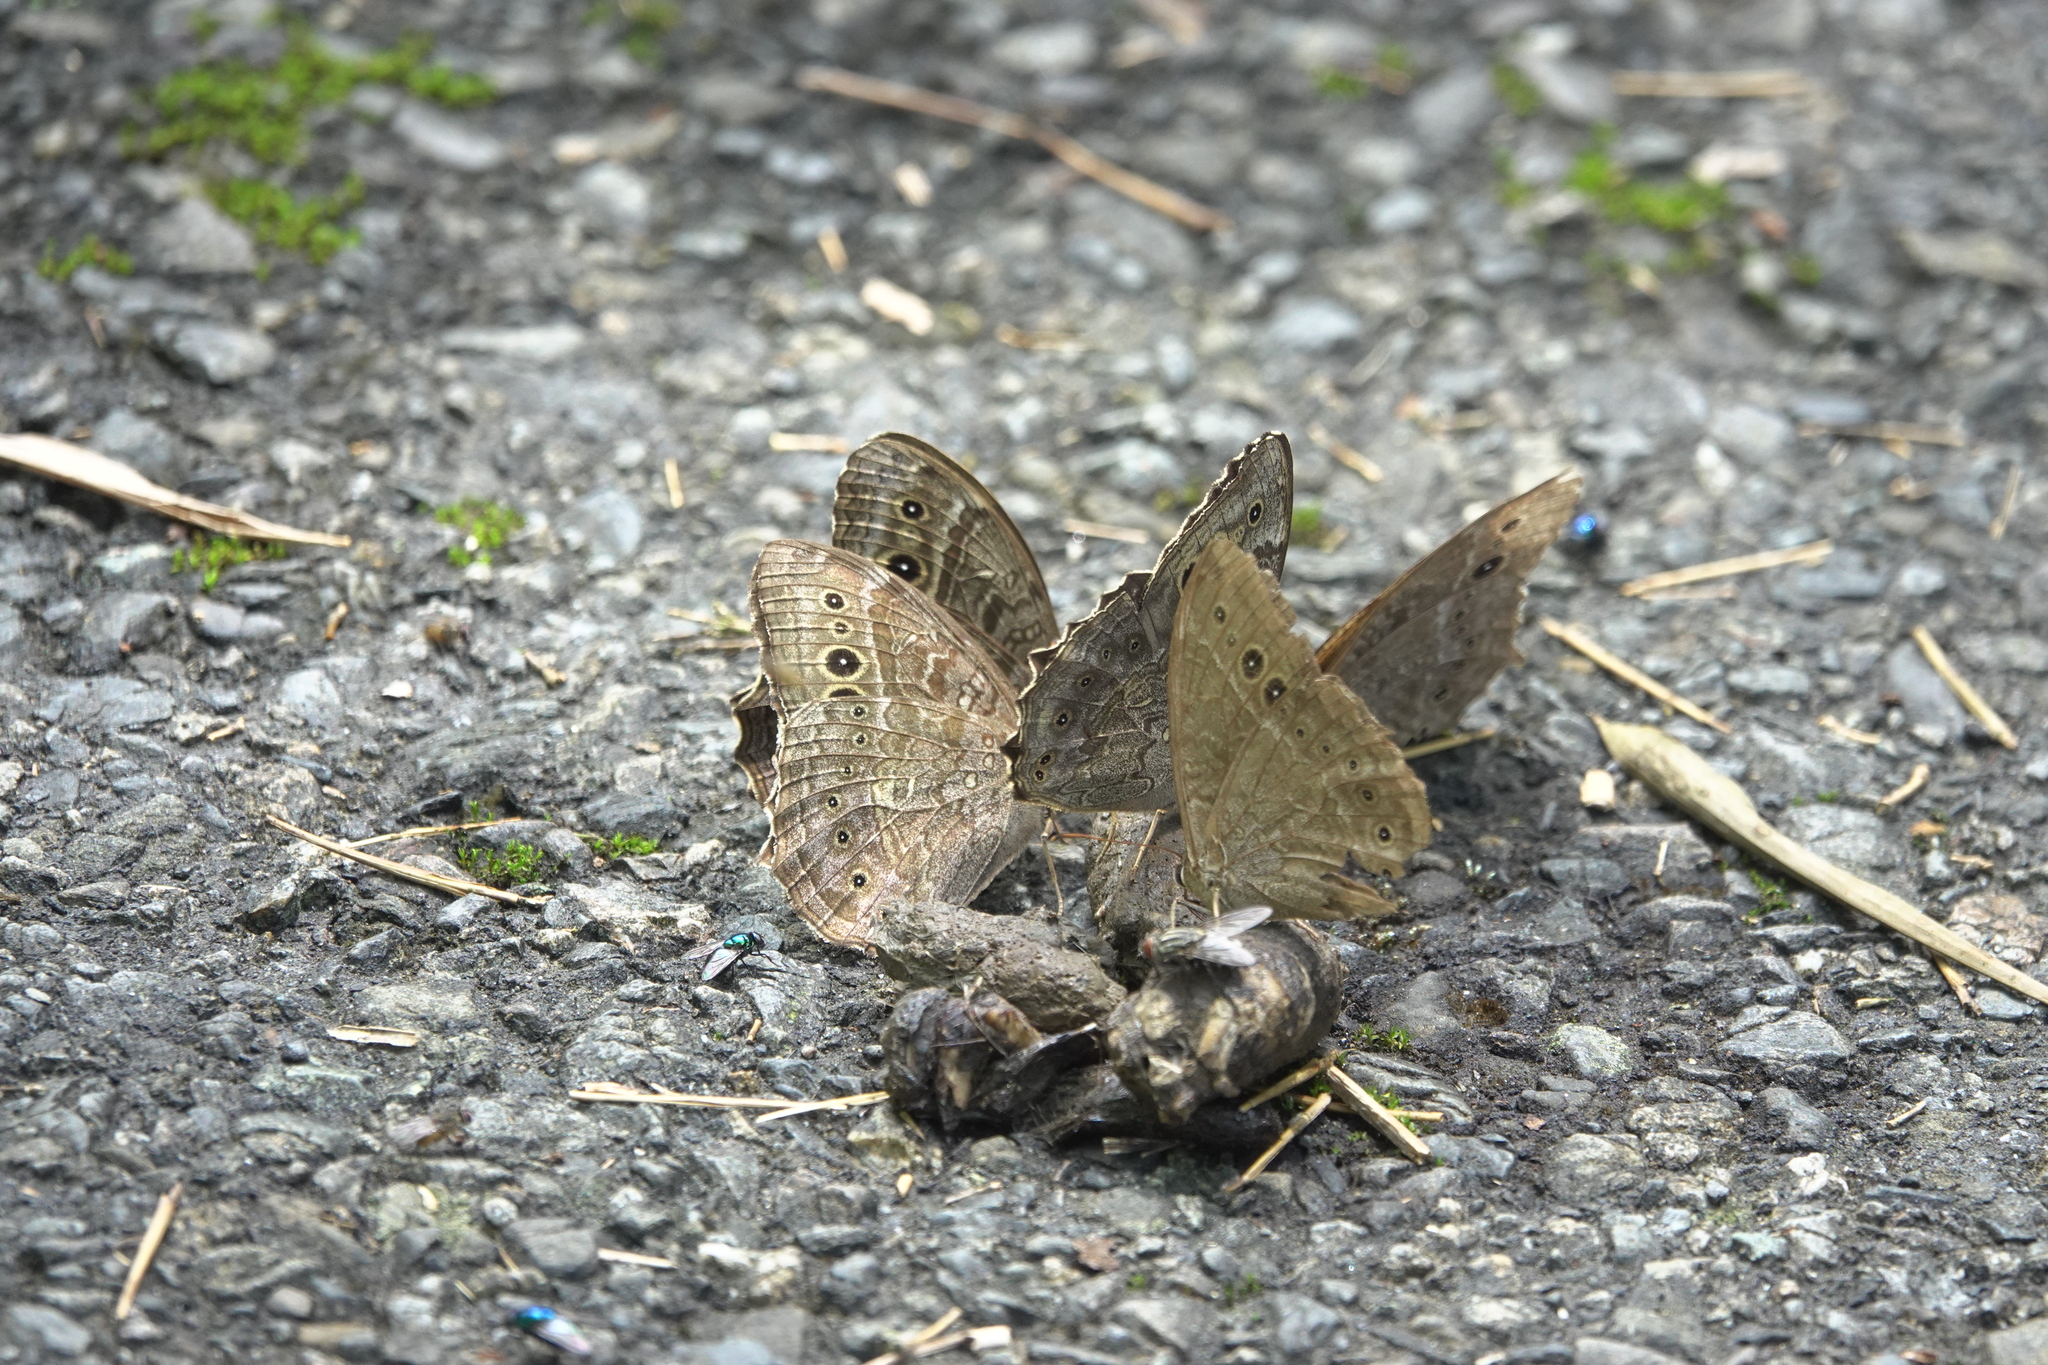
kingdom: Animalia
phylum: Arthropoda
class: Insecta
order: Lepidoptera
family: Nymphalidae
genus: Neope
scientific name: Neope muirheadii
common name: Black-spotted labyrinth
